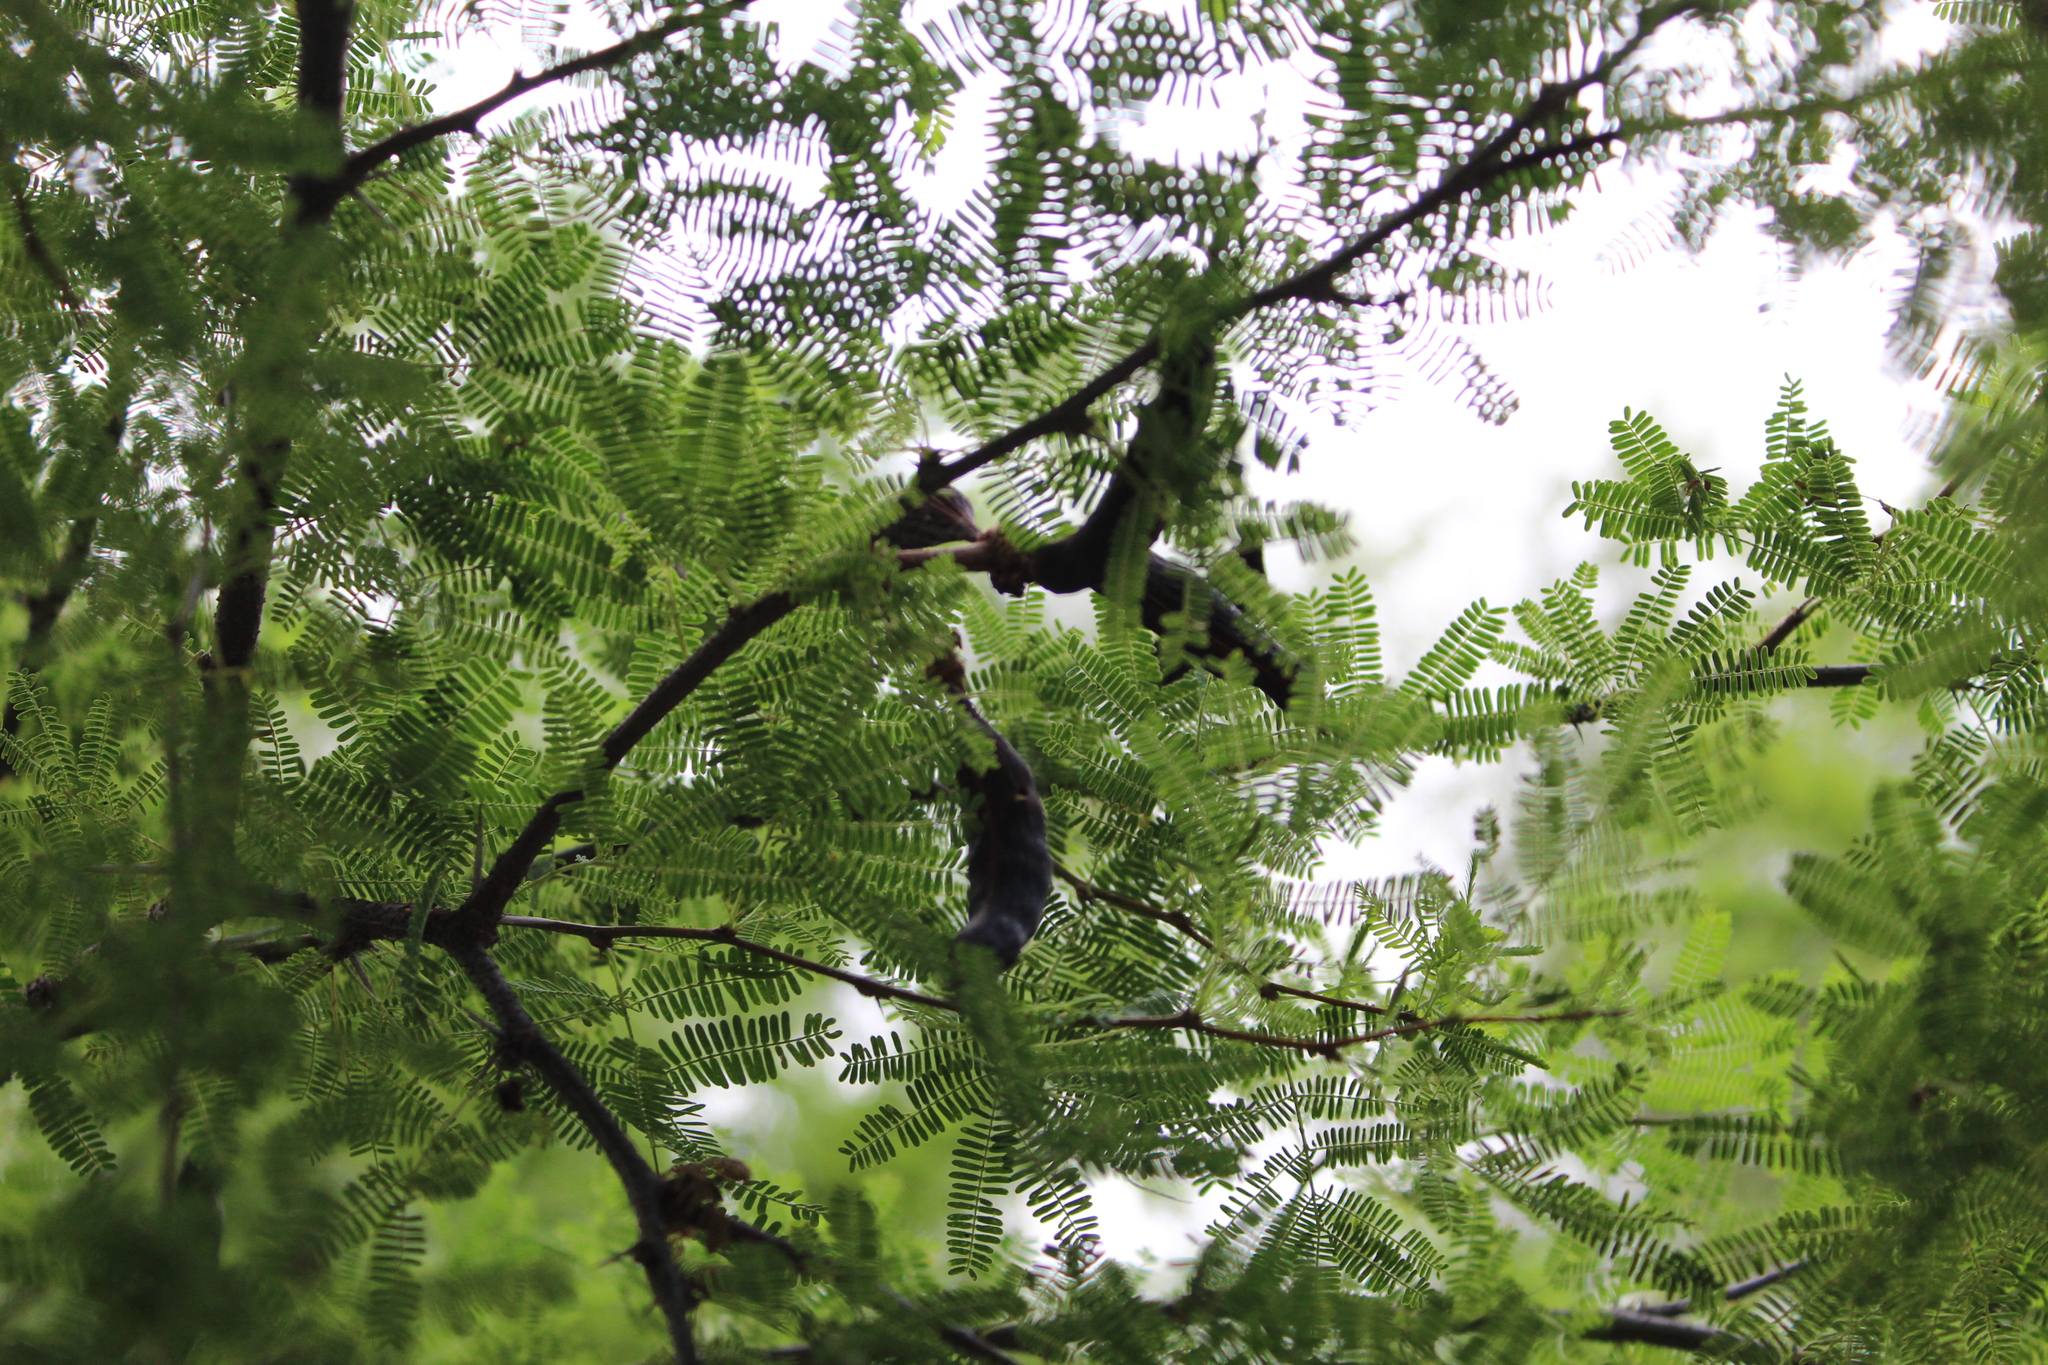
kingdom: Plantae
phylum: Tracheophyta
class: Magnoliopsida
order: Fabales
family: Fabaceae
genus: Vachellia
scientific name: Vachellia farnesiana
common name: Sweet acacia
